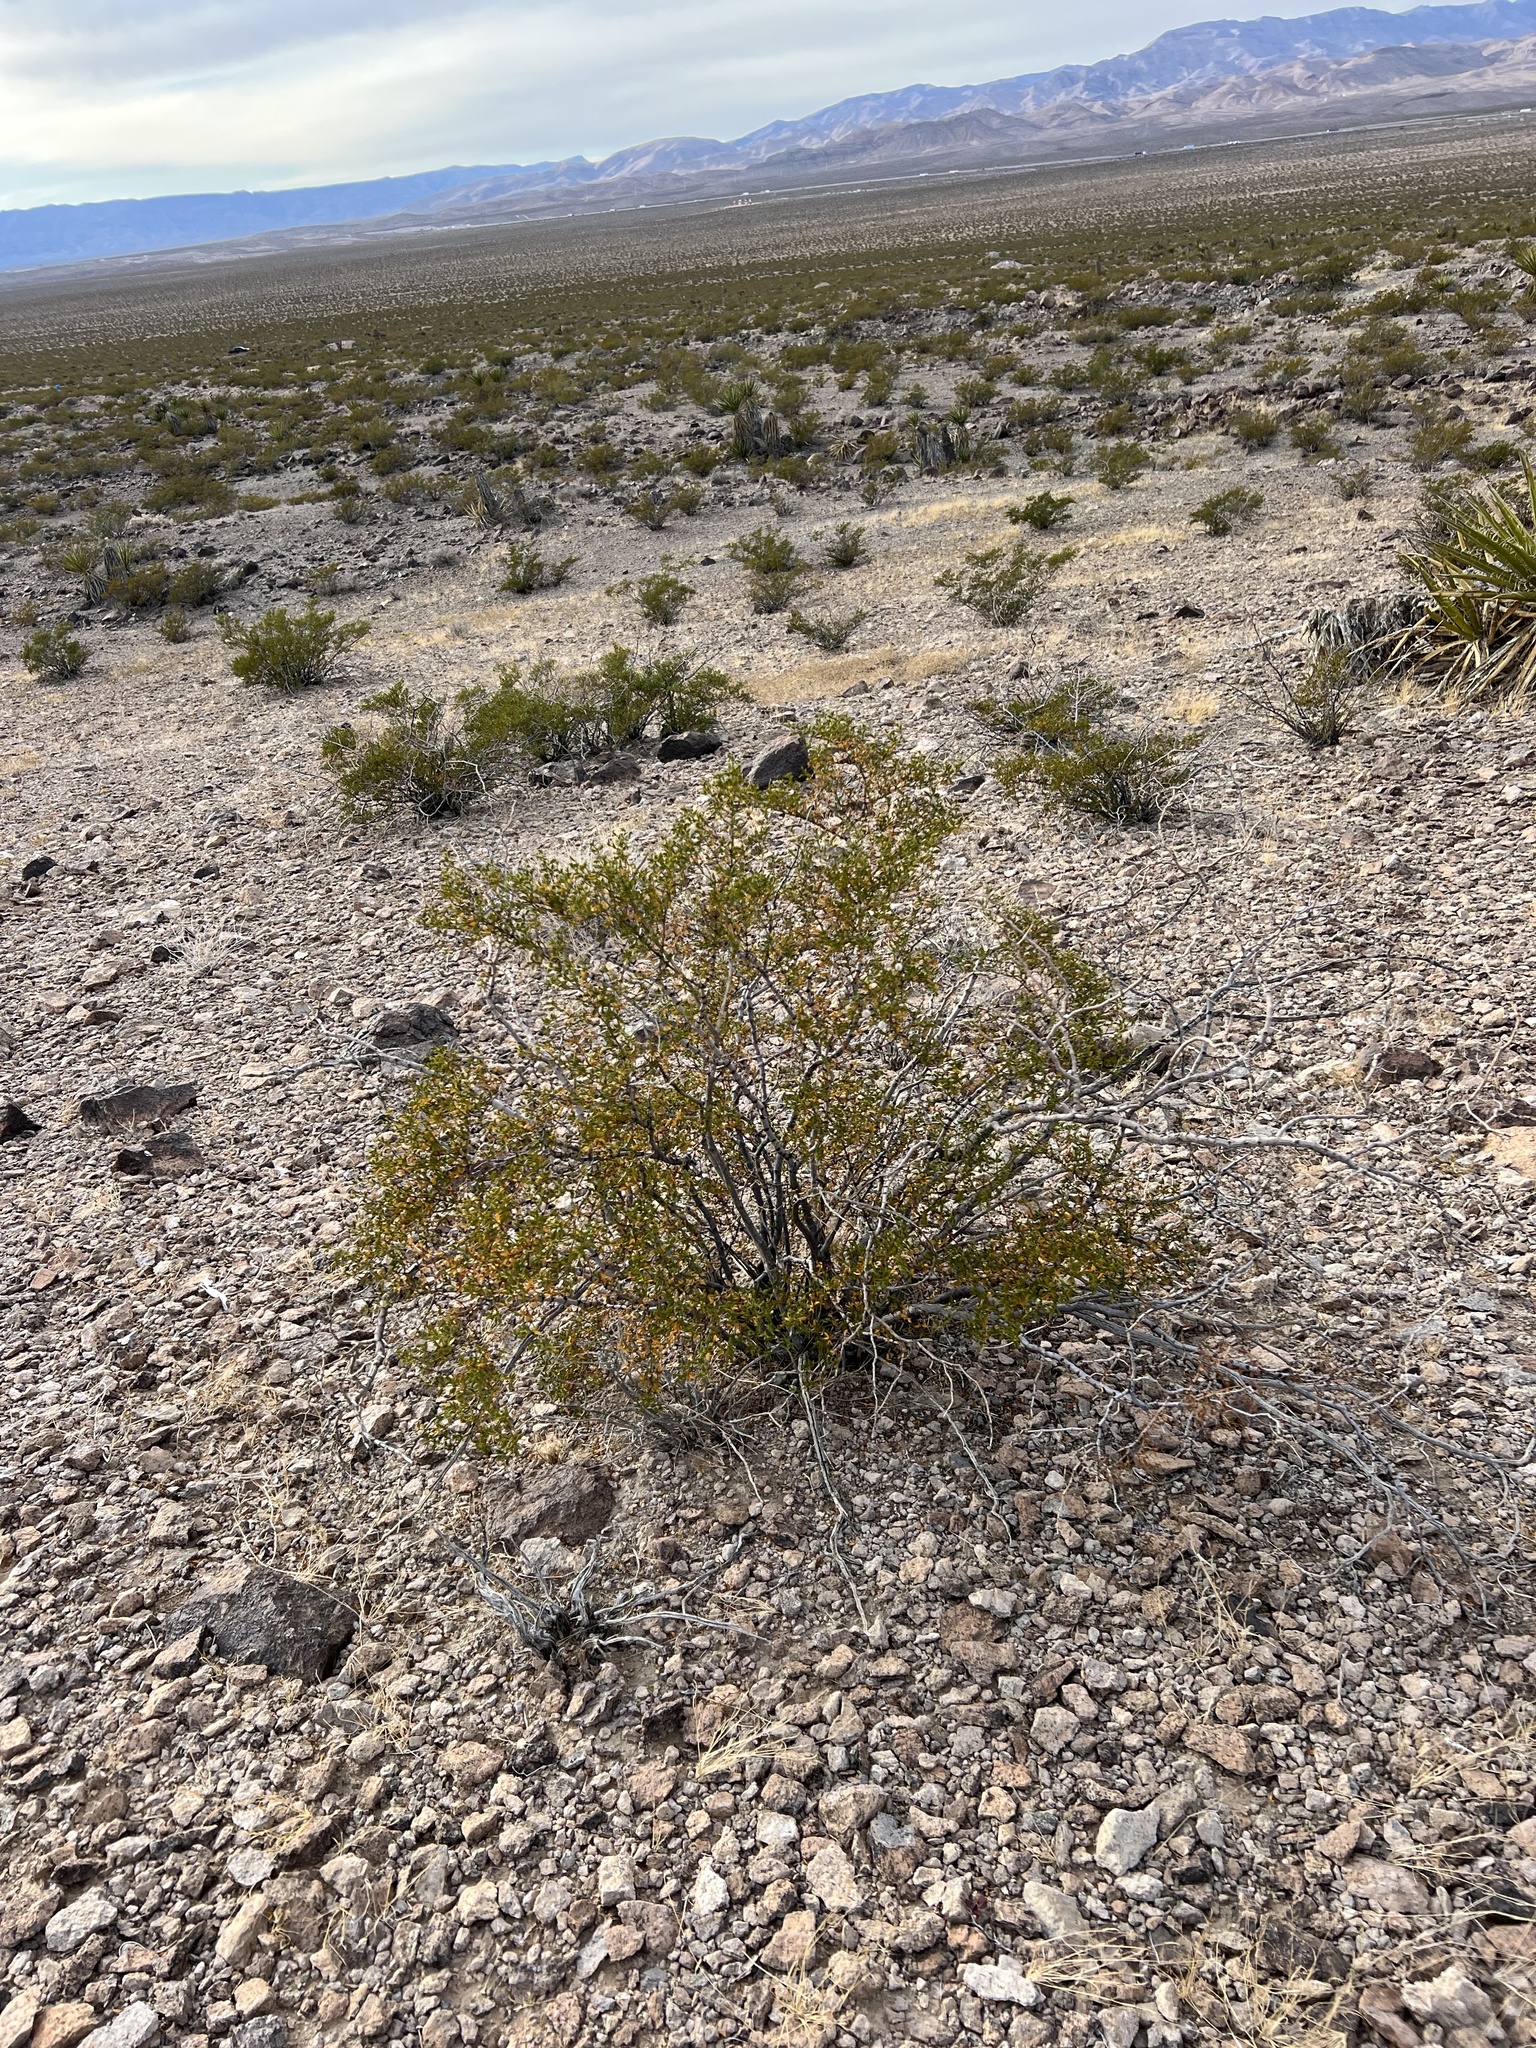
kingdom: Plantae
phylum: Tracheophyta
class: Magnoliopsida
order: Zygophyllales
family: Zygophyllaceae
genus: Larrea
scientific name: Larrea tridentata
